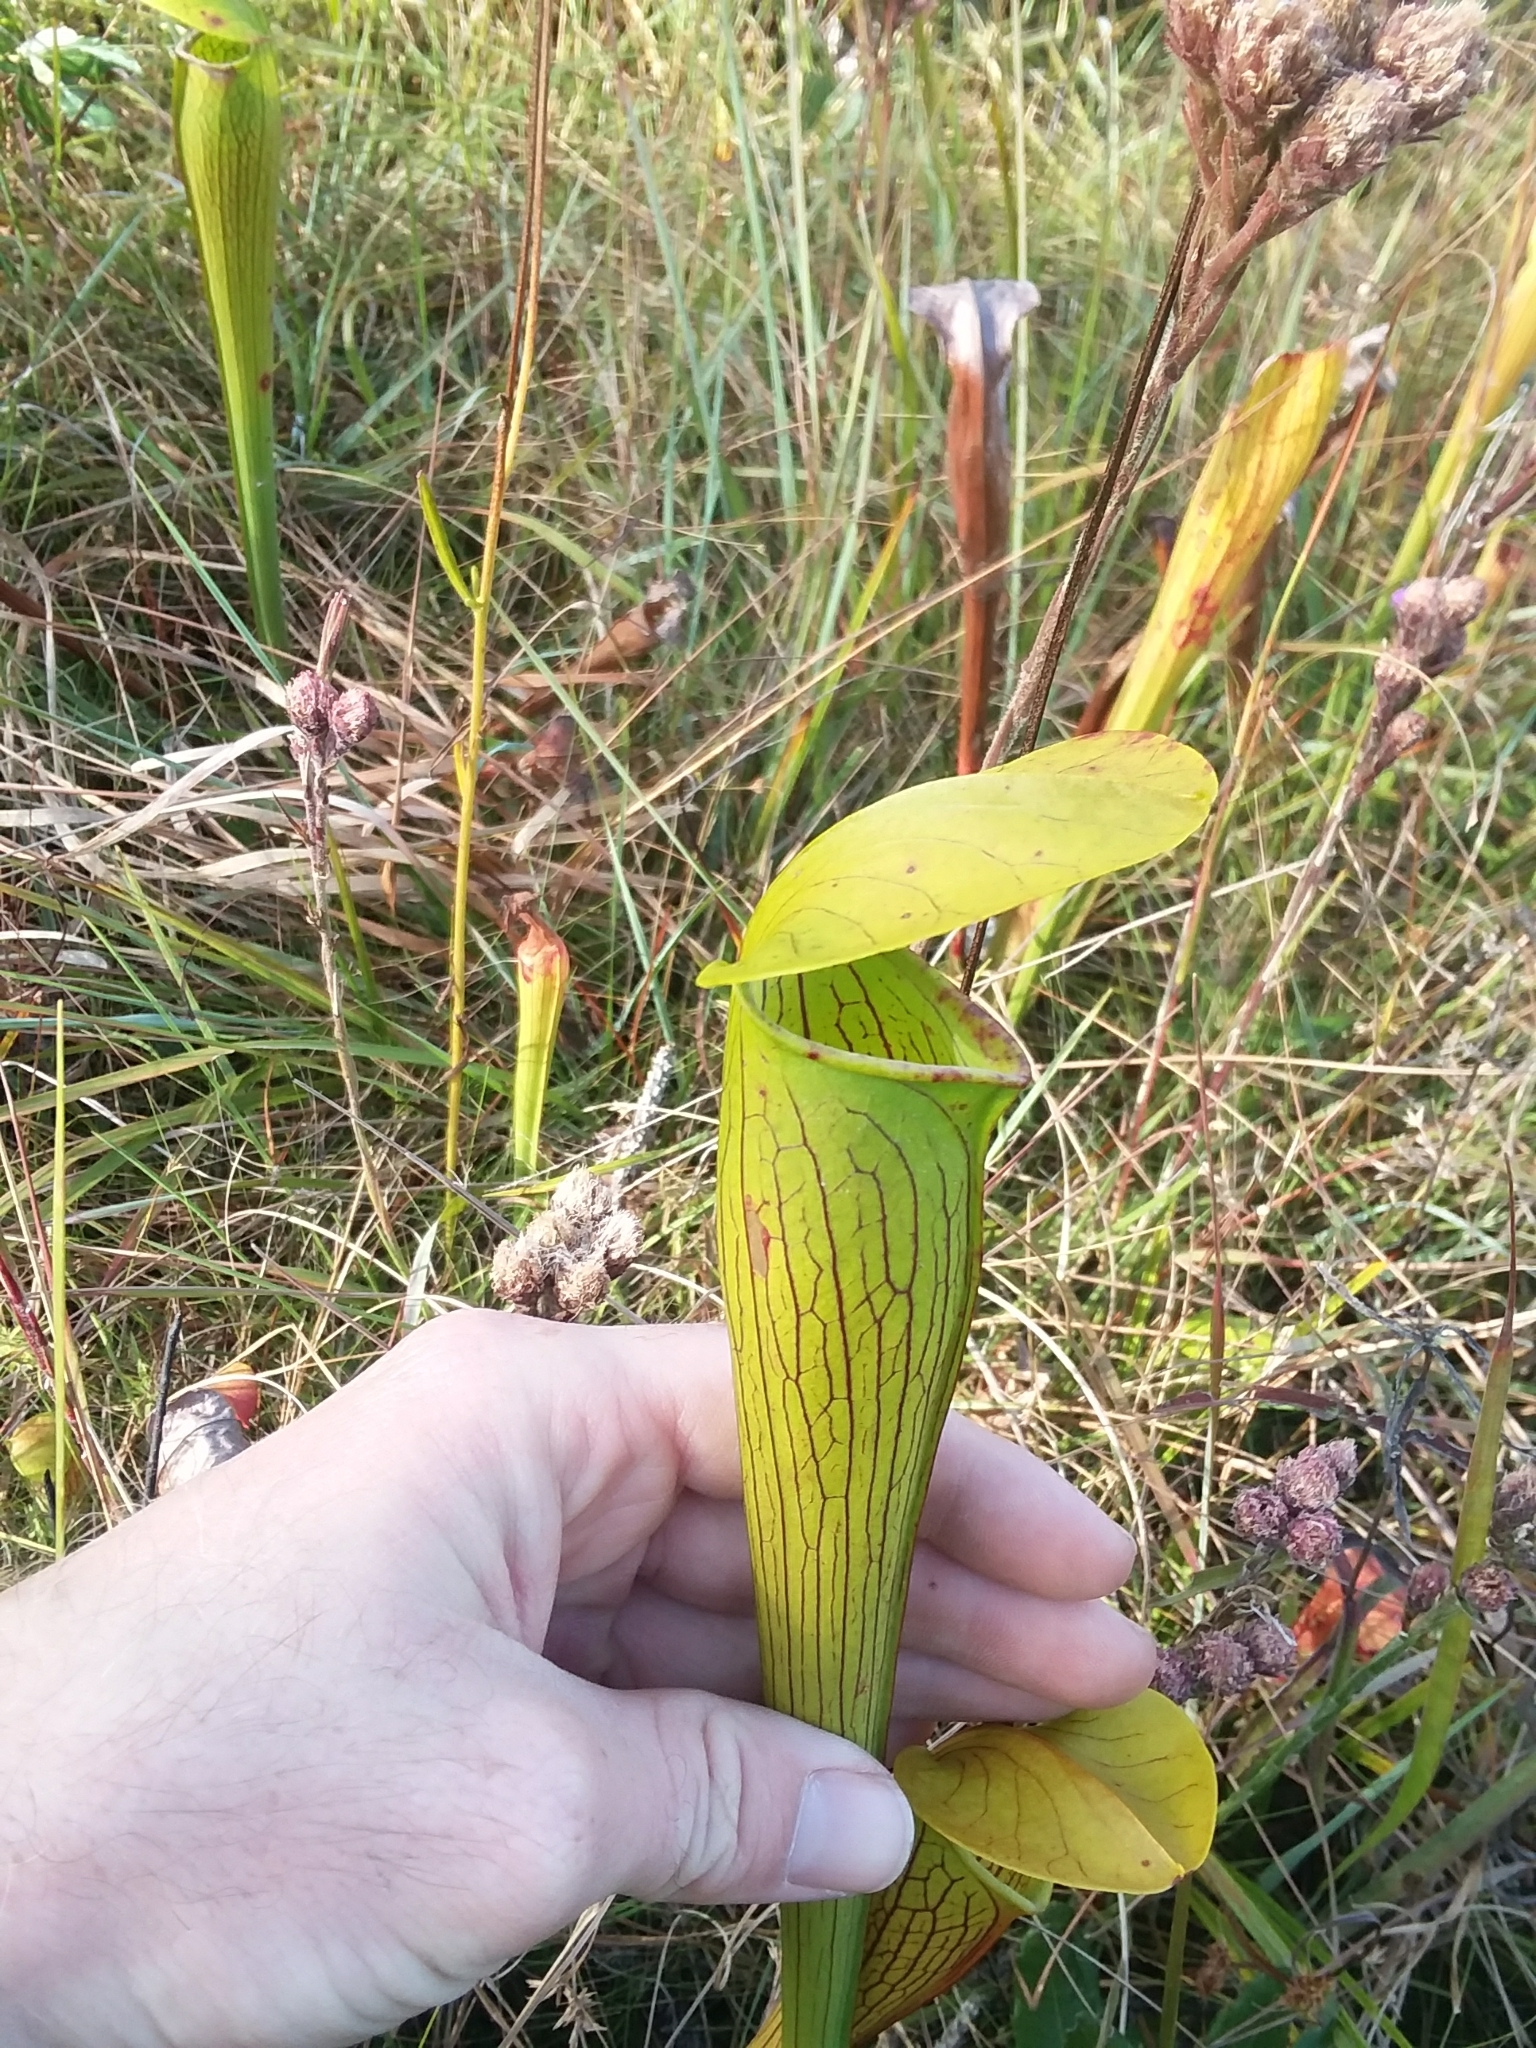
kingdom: Plantae
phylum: Tracheophyta
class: Magnoliopsida
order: Ericales
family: Sarraceniaceae
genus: Sarracenia
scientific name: Sarracenia alata
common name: Yellow trumpets
